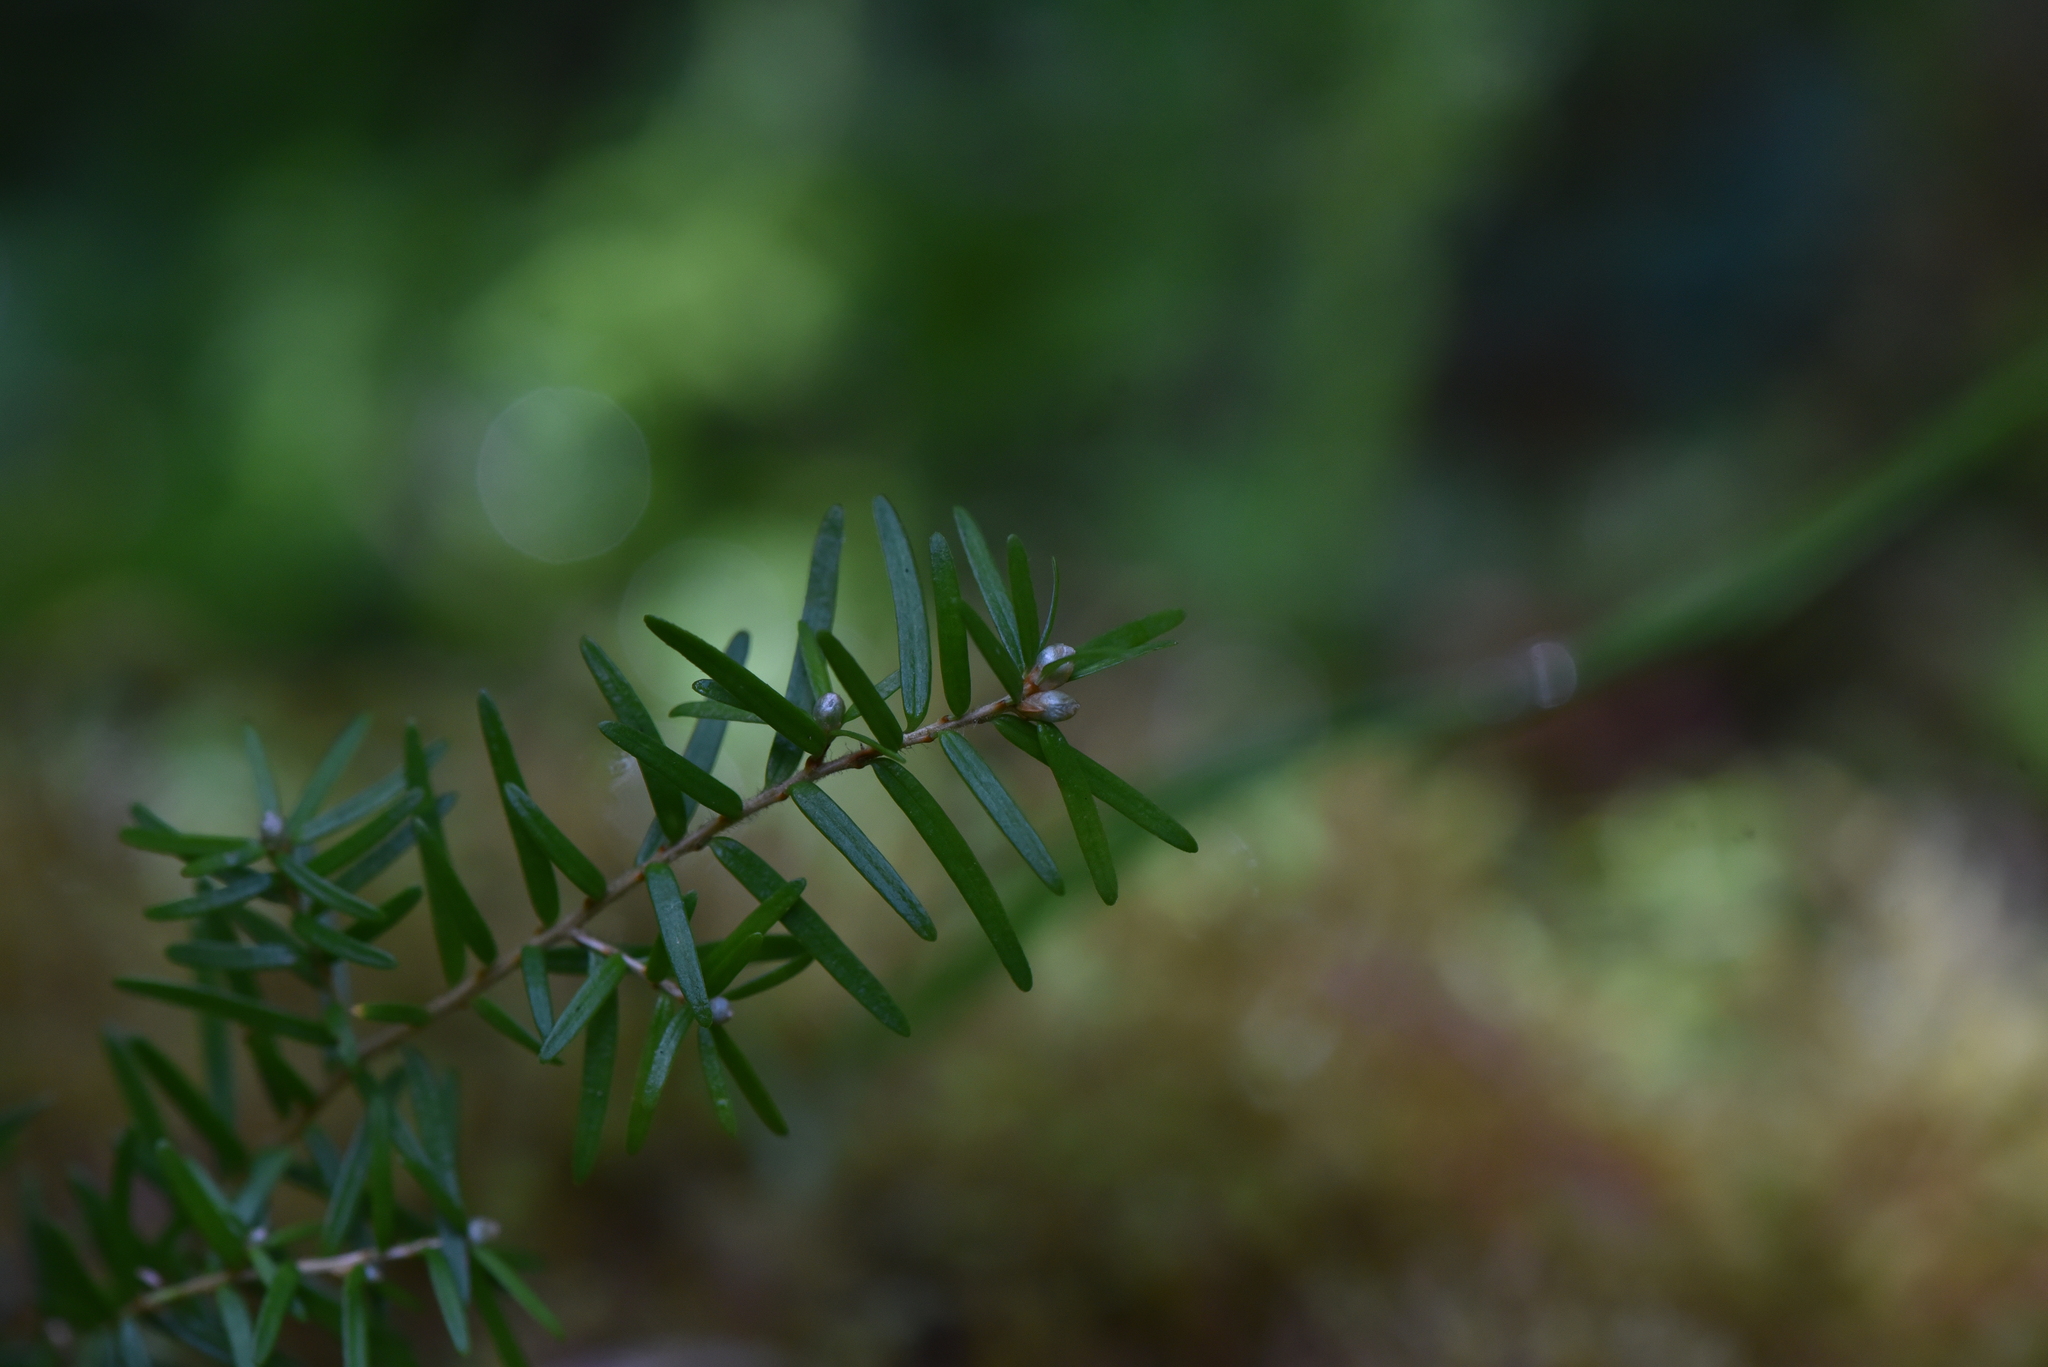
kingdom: Plantae
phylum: Tracheophyta
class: Pinopsida
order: Pinales
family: Pinaceae
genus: Tsuga
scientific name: Tsuga heterophylla
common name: Western hemlock
